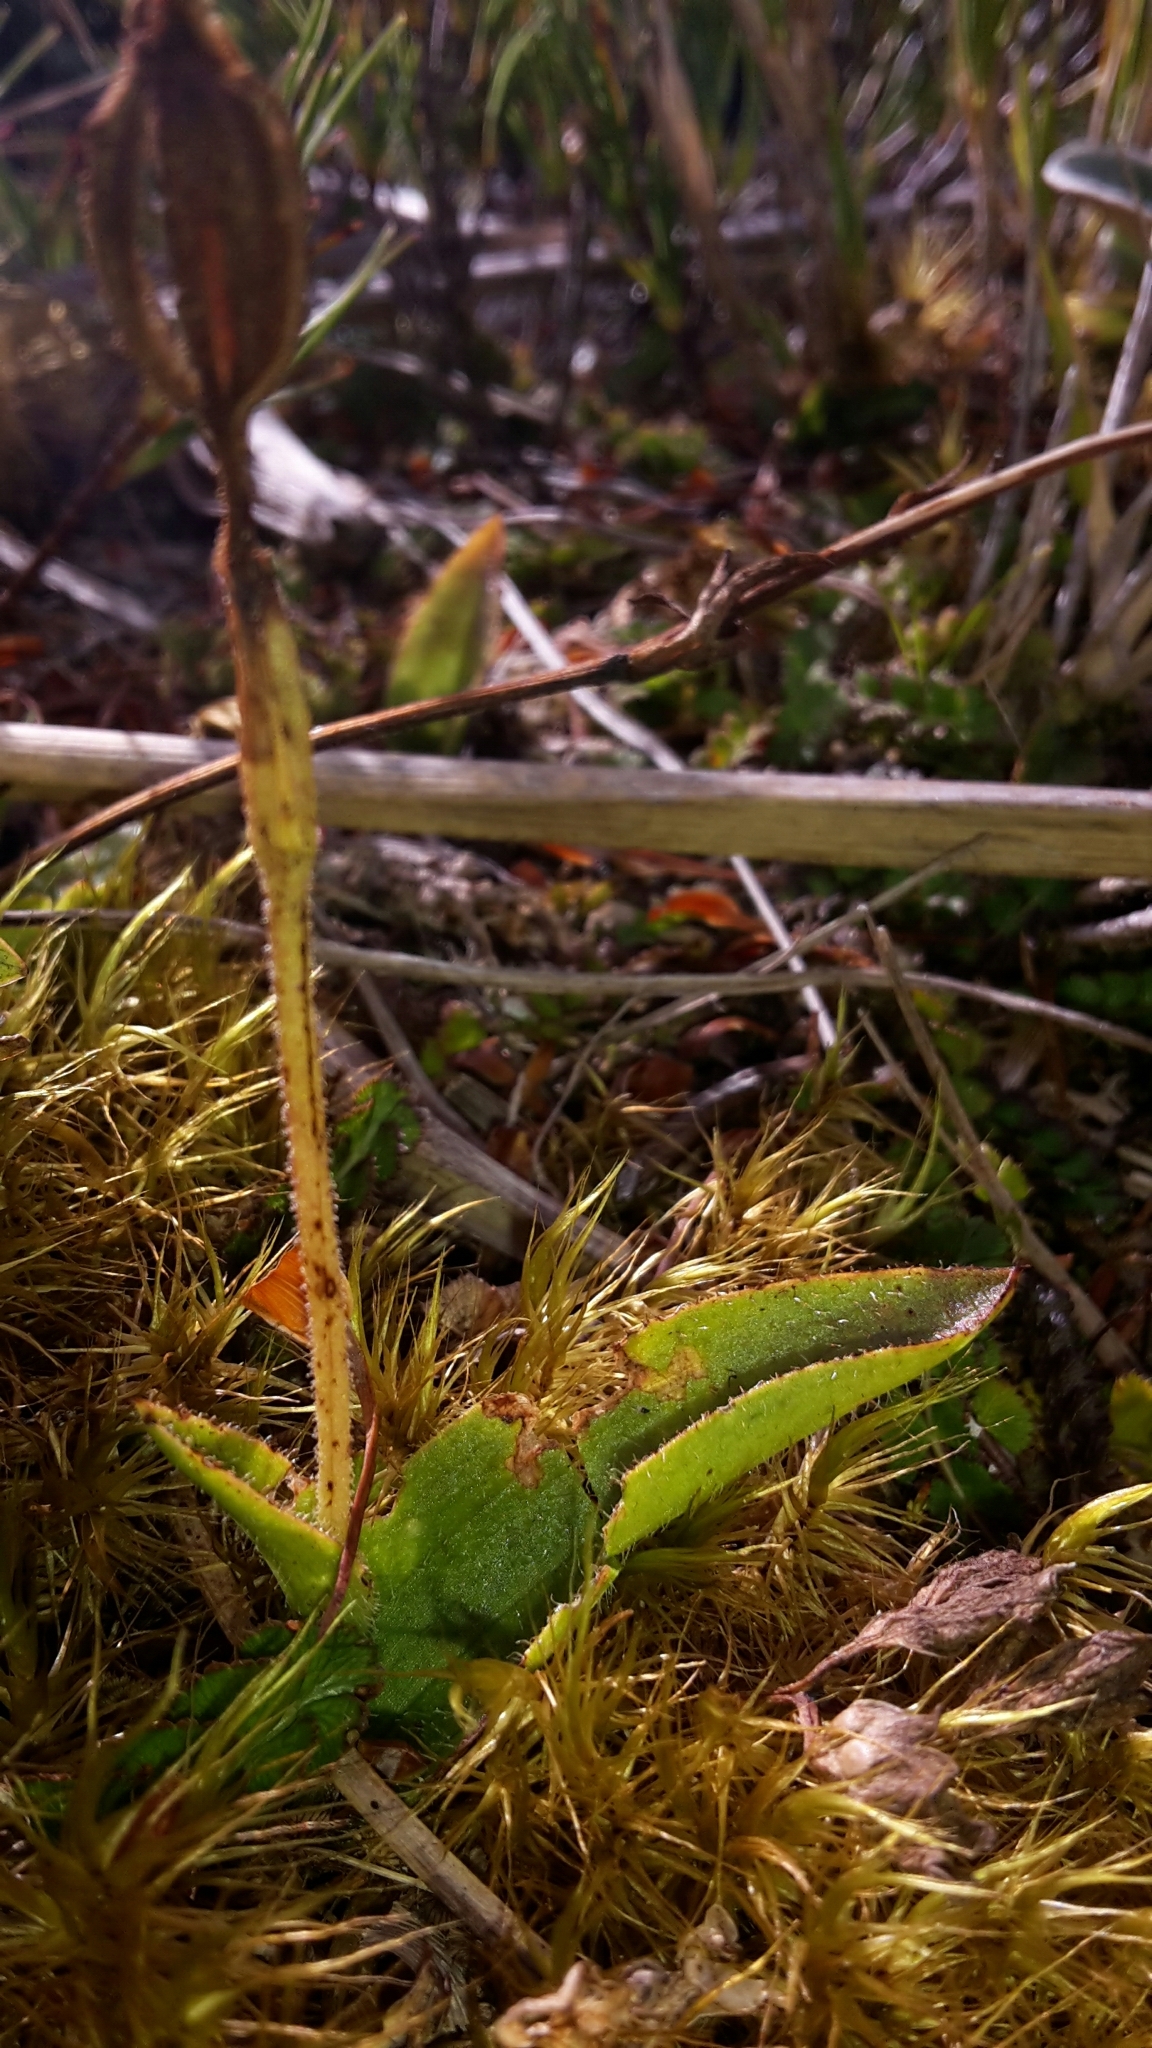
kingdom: Plantae
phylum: Tracheophyta
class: Liliopsida
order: Asparagales
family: Orchidaceae
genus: Aporostylis
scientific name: Aporostylis bifolia
